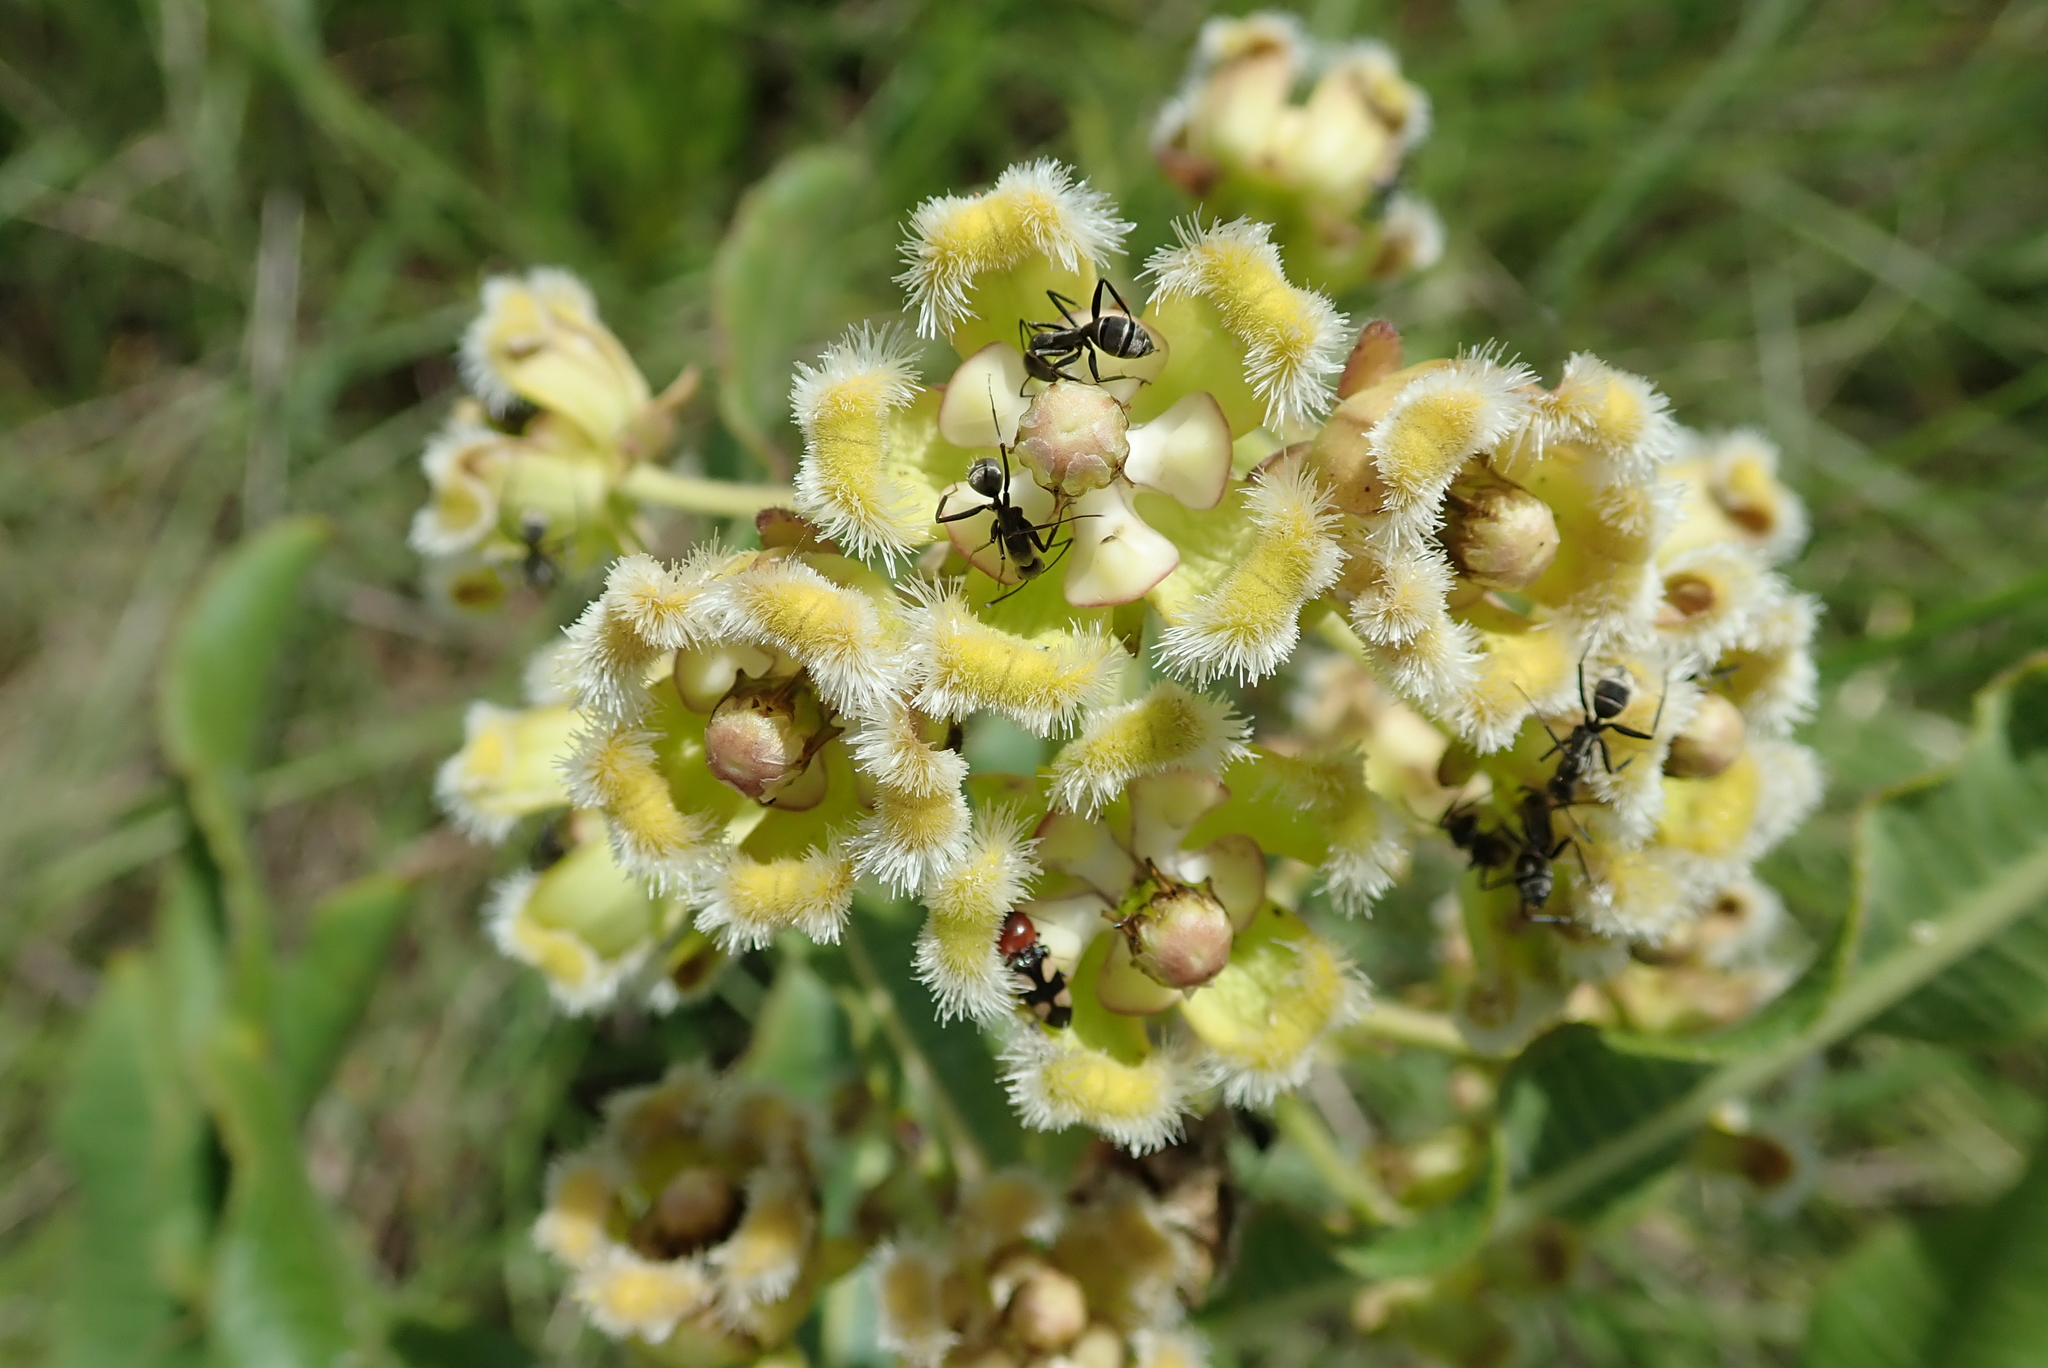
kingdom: Plantae
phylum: Tracheophyta
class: Magnoliopsida
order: Gentianales
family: Apocynaceae
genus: Xysmalobium
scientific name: Xysmalobium undulatum
